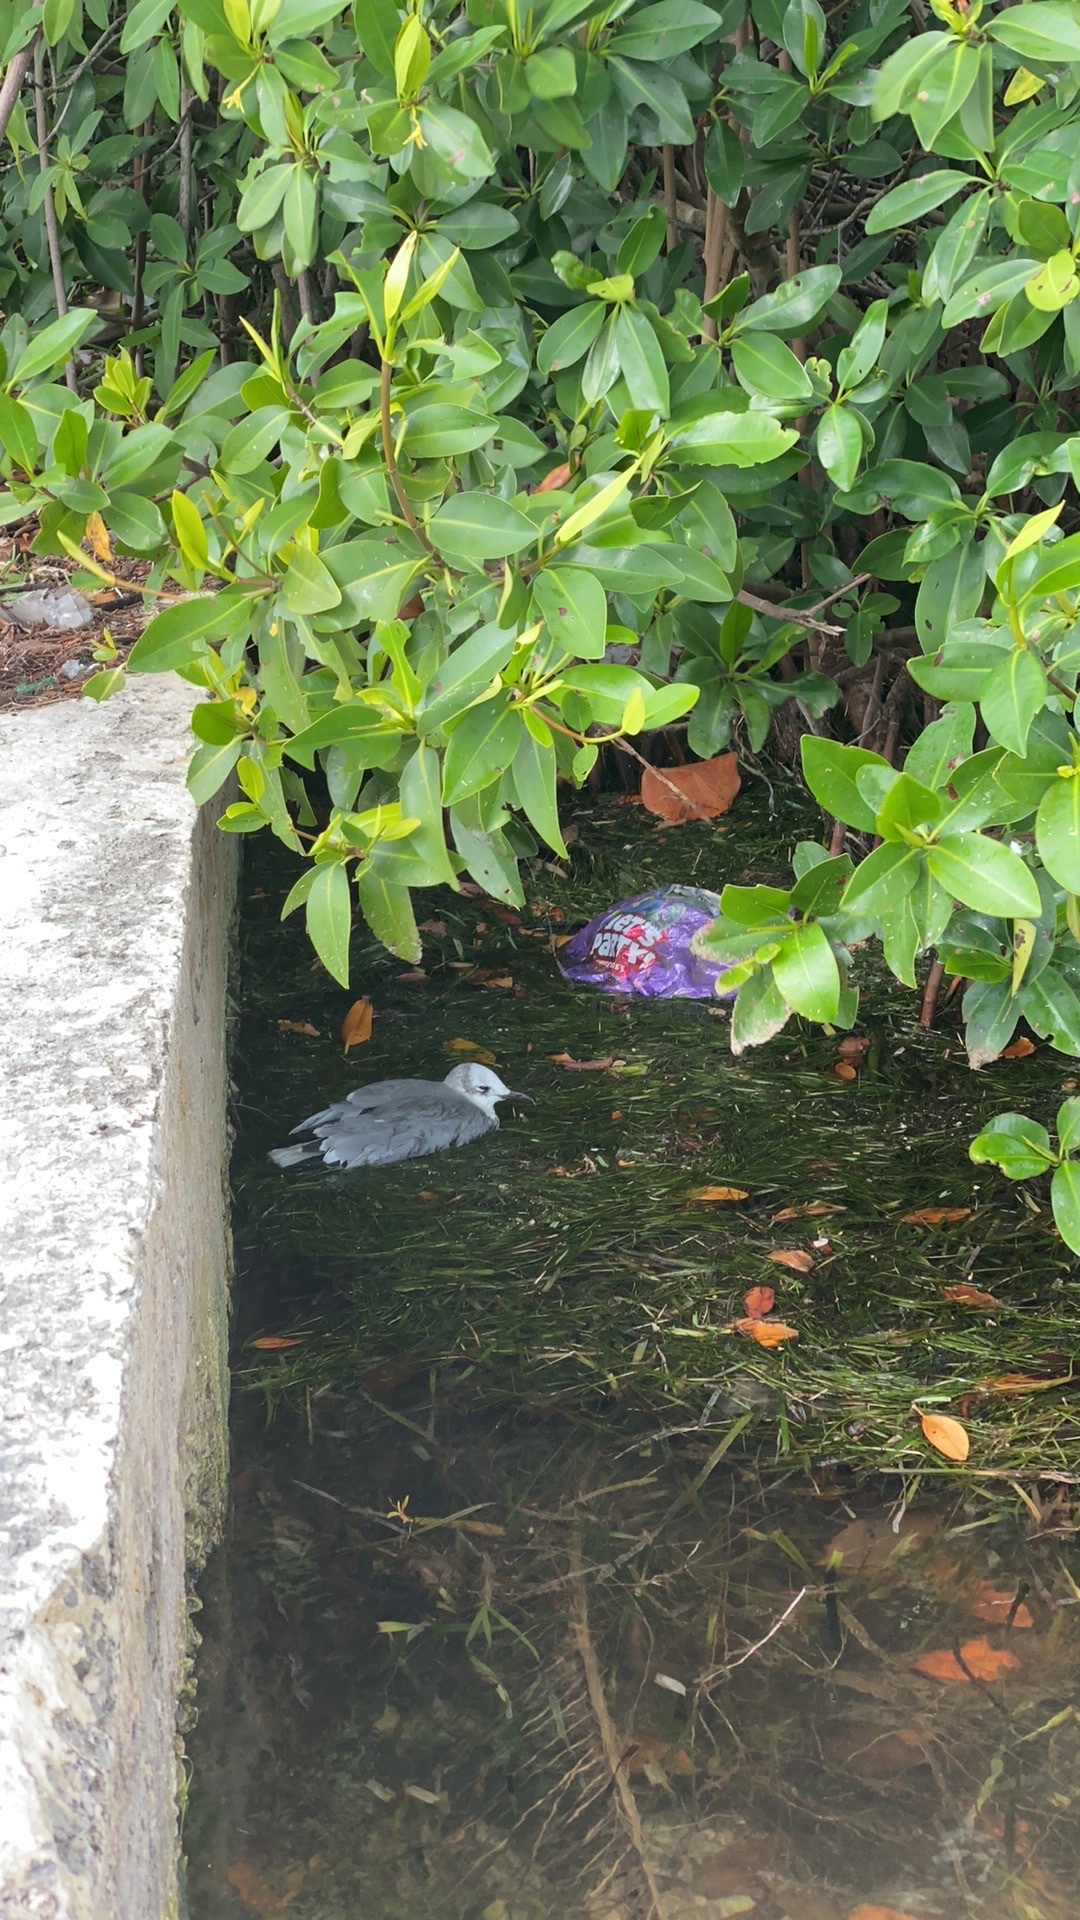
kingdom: Animalia
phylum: Chordata
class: Aves
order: Charadriiformes
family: Laridae
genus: Leucophaeus
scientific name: Leucophaeus atricilla
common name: Laughing gull
